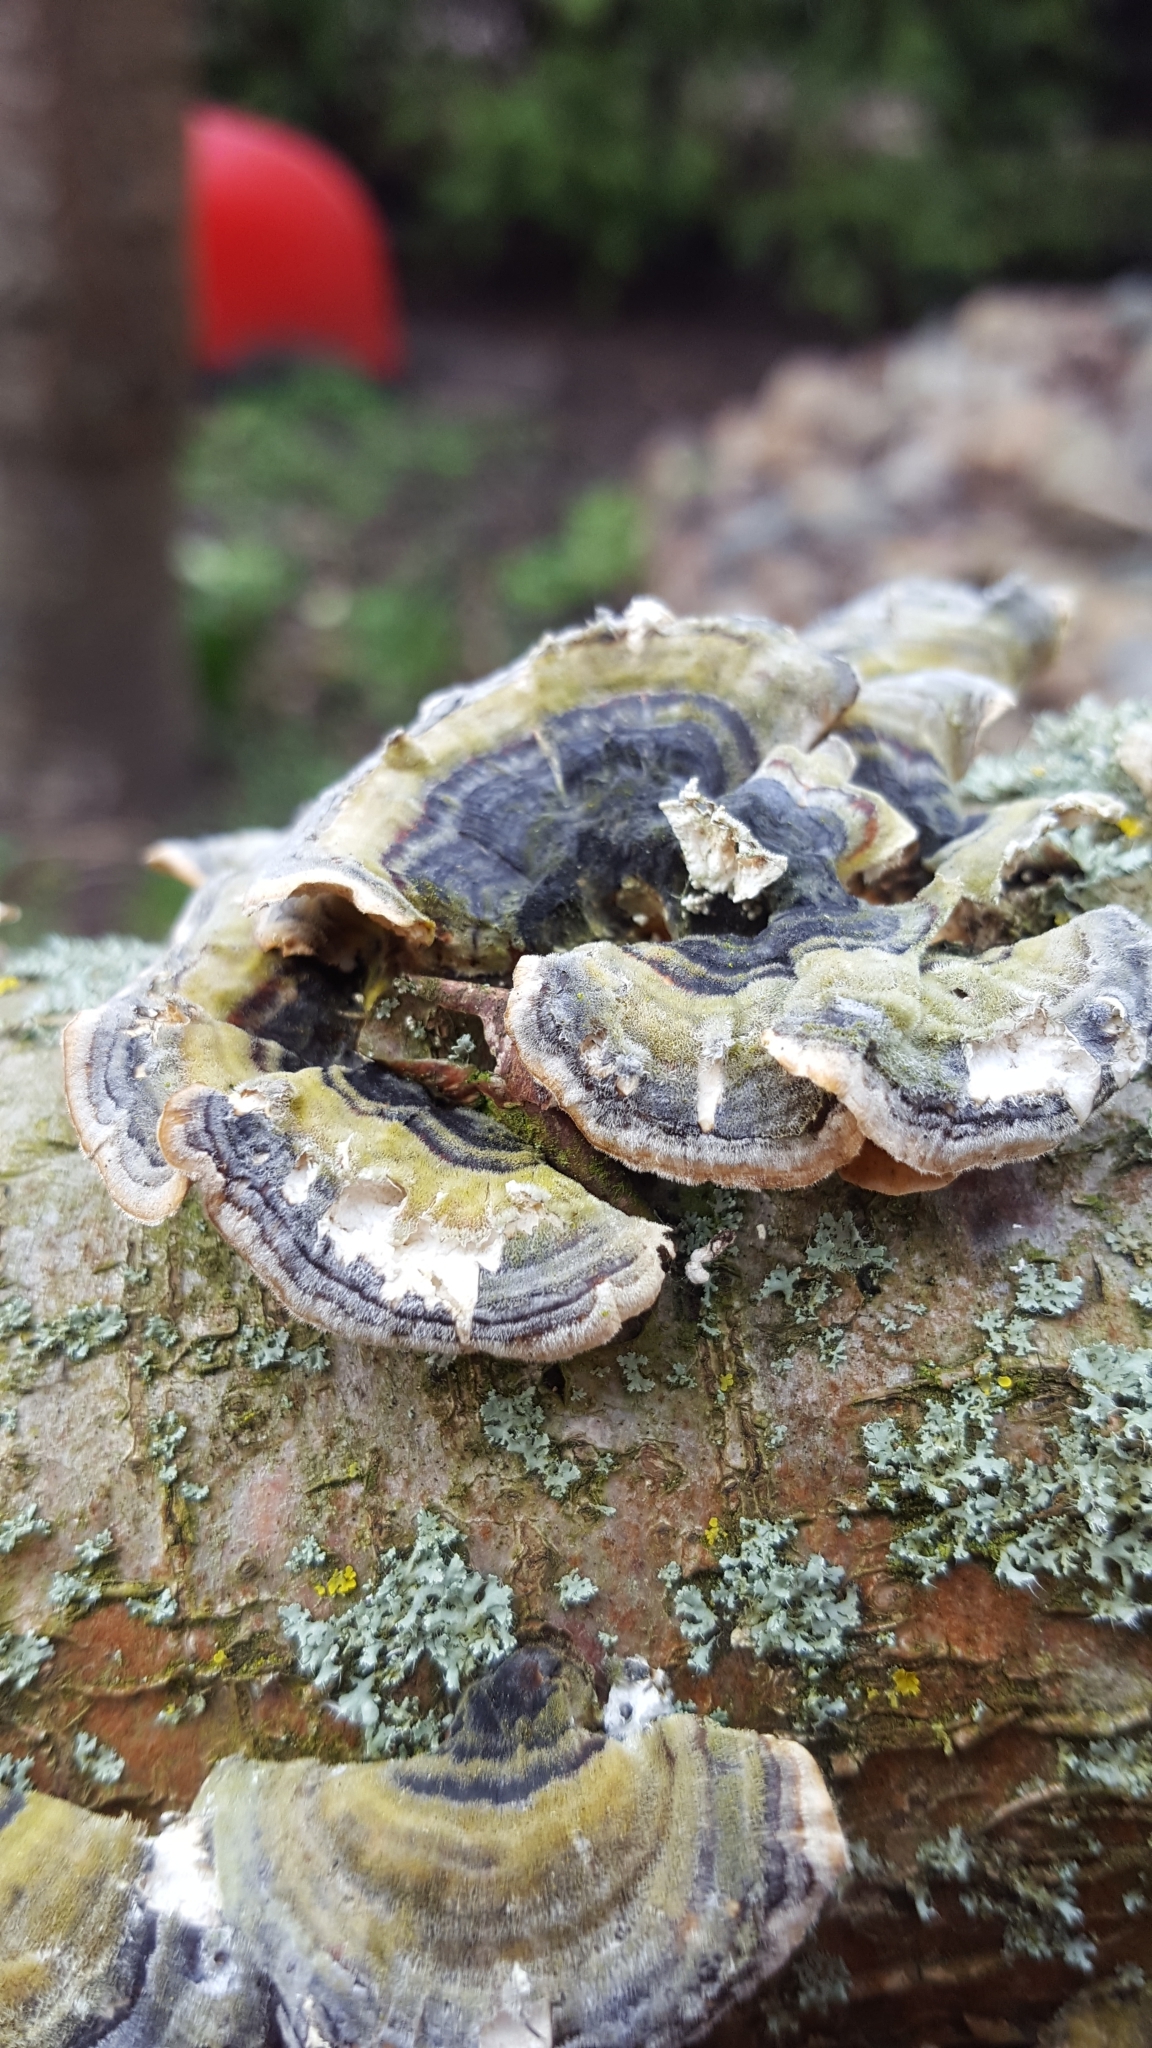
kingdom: Fungi
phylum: Basidiomycota
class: Agaricomycetes
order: Polyporales
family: Polyporaceae
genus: Trametes
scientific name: Trametes versicolor
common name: Turkeytail
